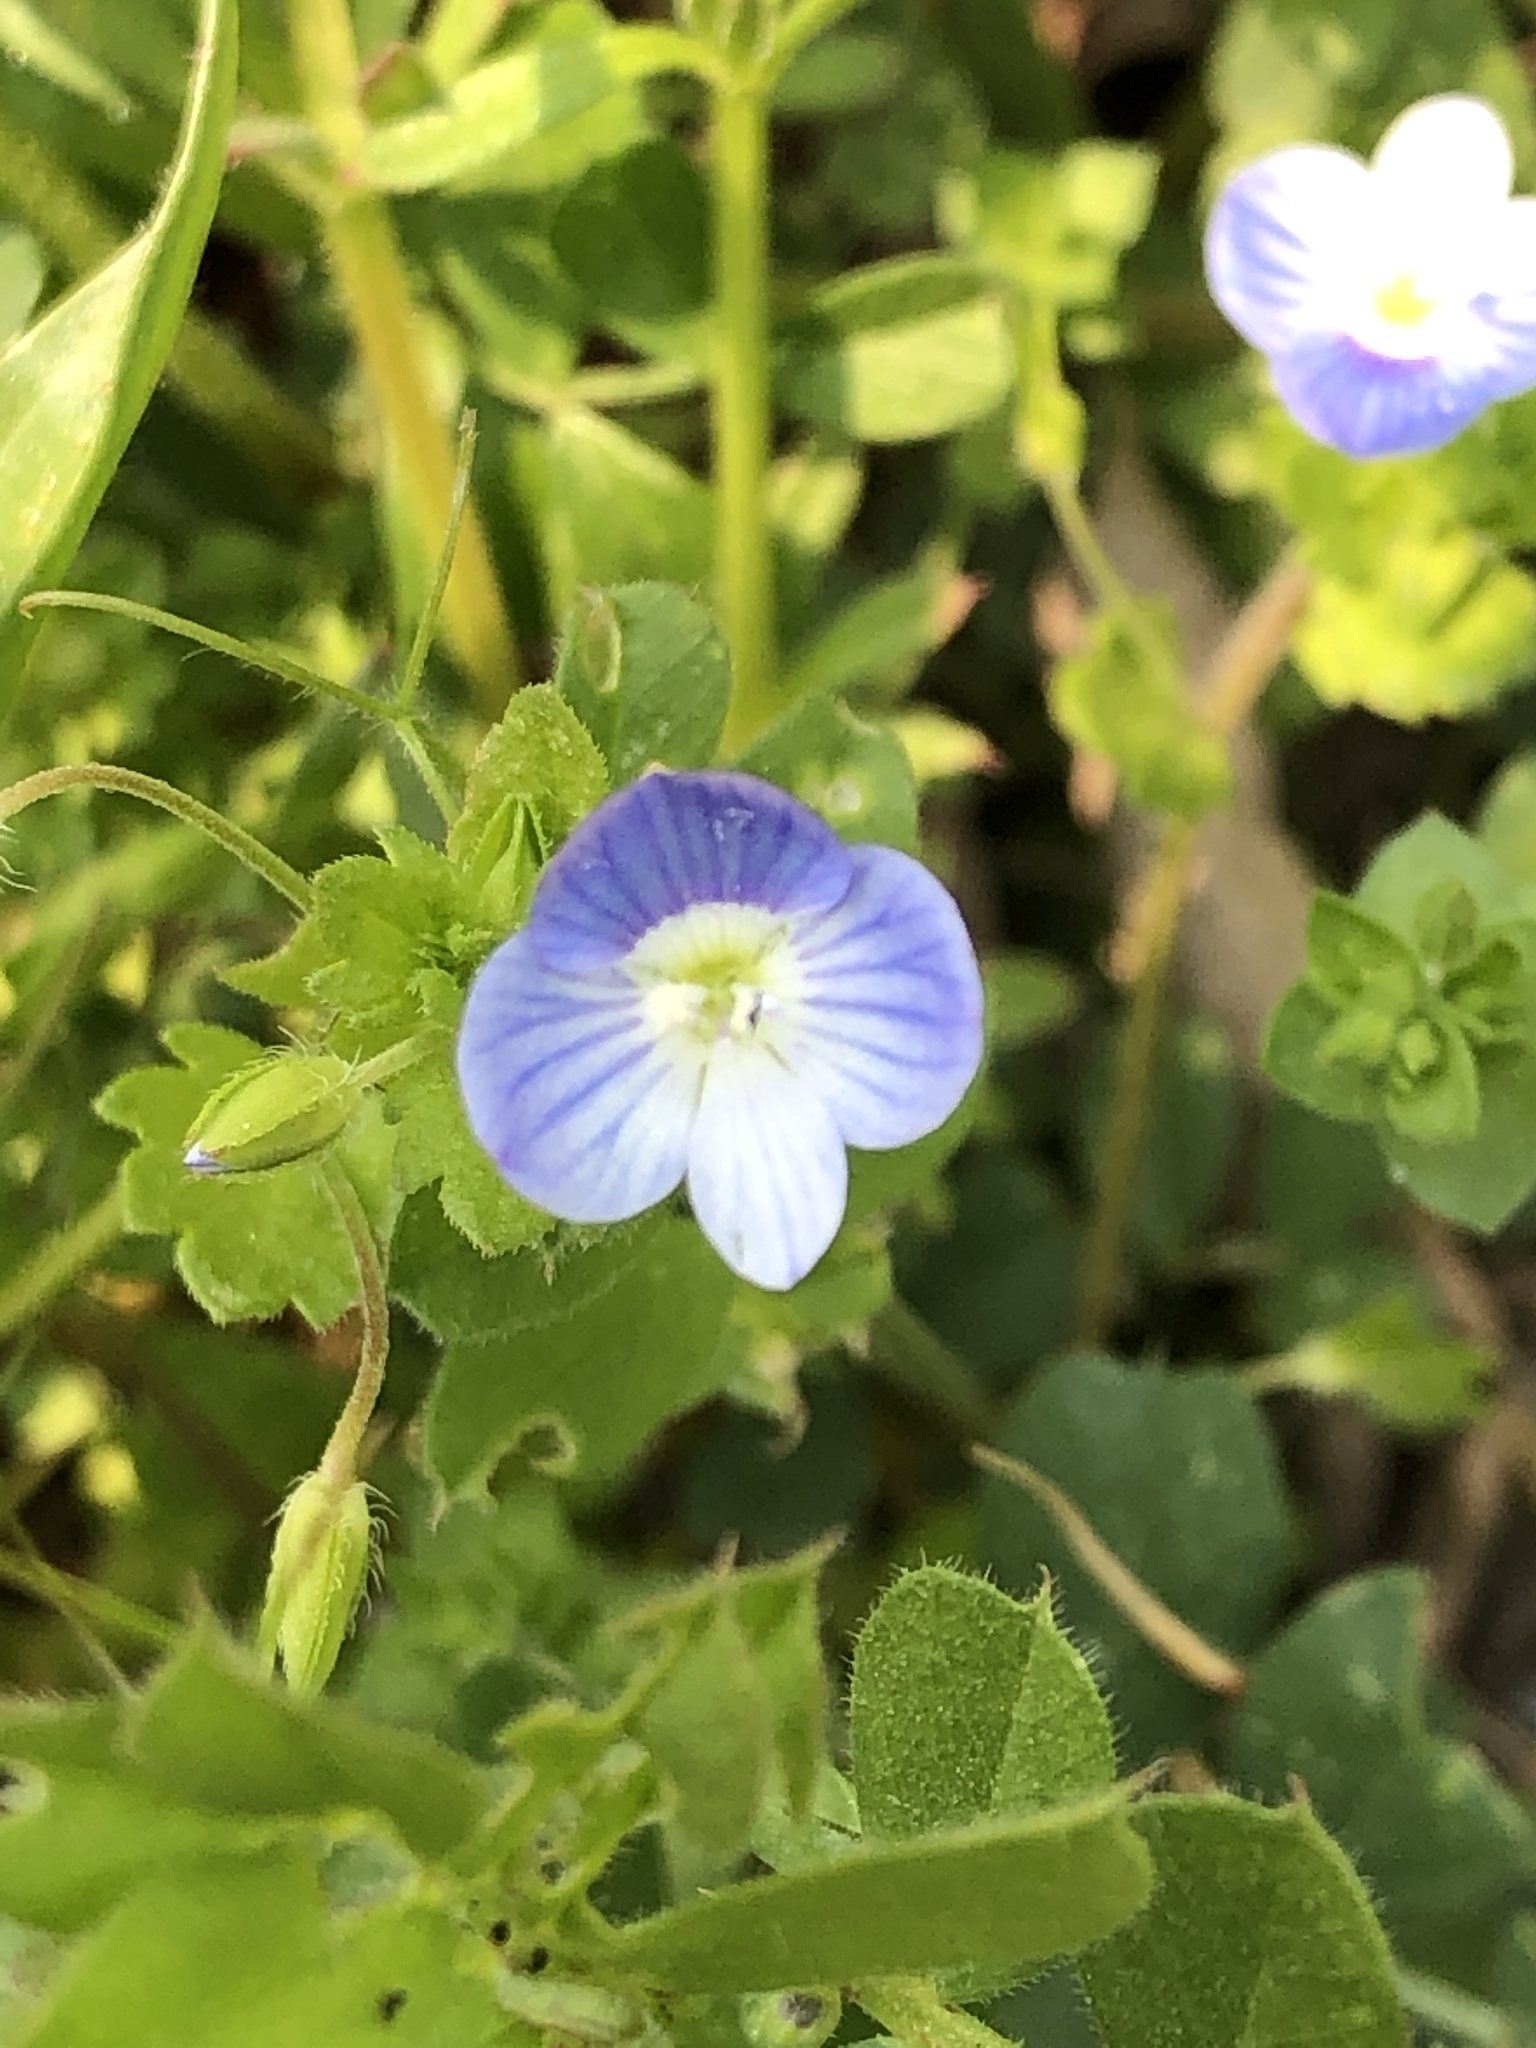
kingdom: Plantae
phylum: Tracheophyta
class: Magnoliopsida
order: Lamiales
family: Plantaginaceae
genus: Veronica
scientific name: Veronica persica
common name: Common field-speedwell
